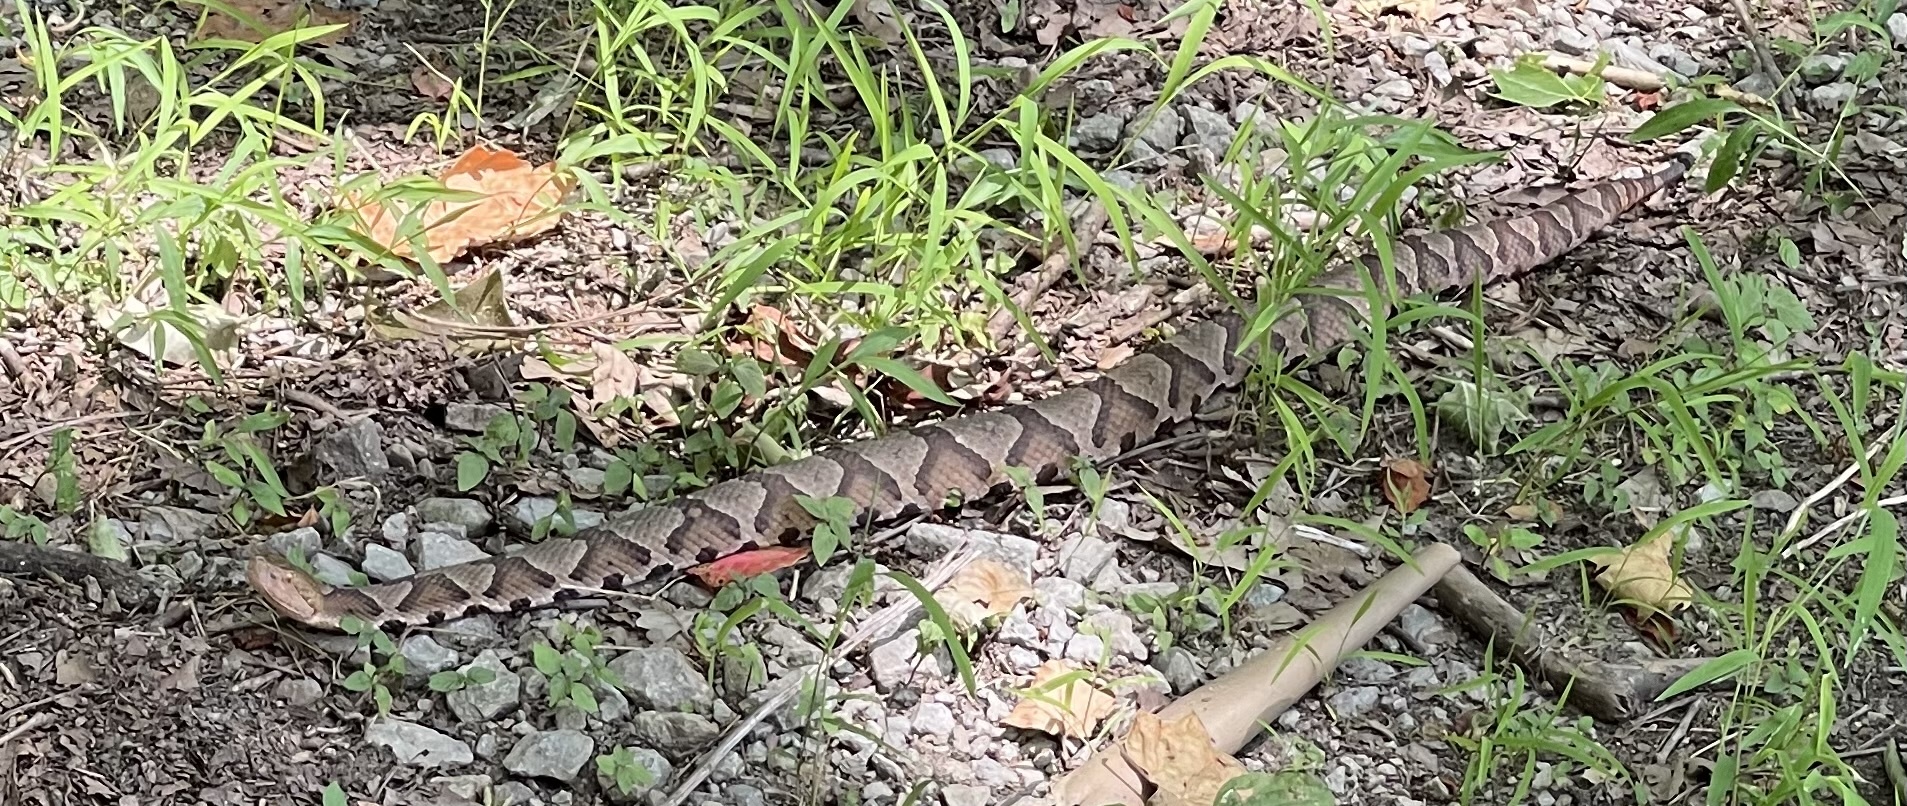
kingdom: Animalia
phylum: Chordata
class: Squamata
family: Viperidae
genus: Agkistrodon
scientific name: Agkistrodon contortrix
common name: Northern copperhead
